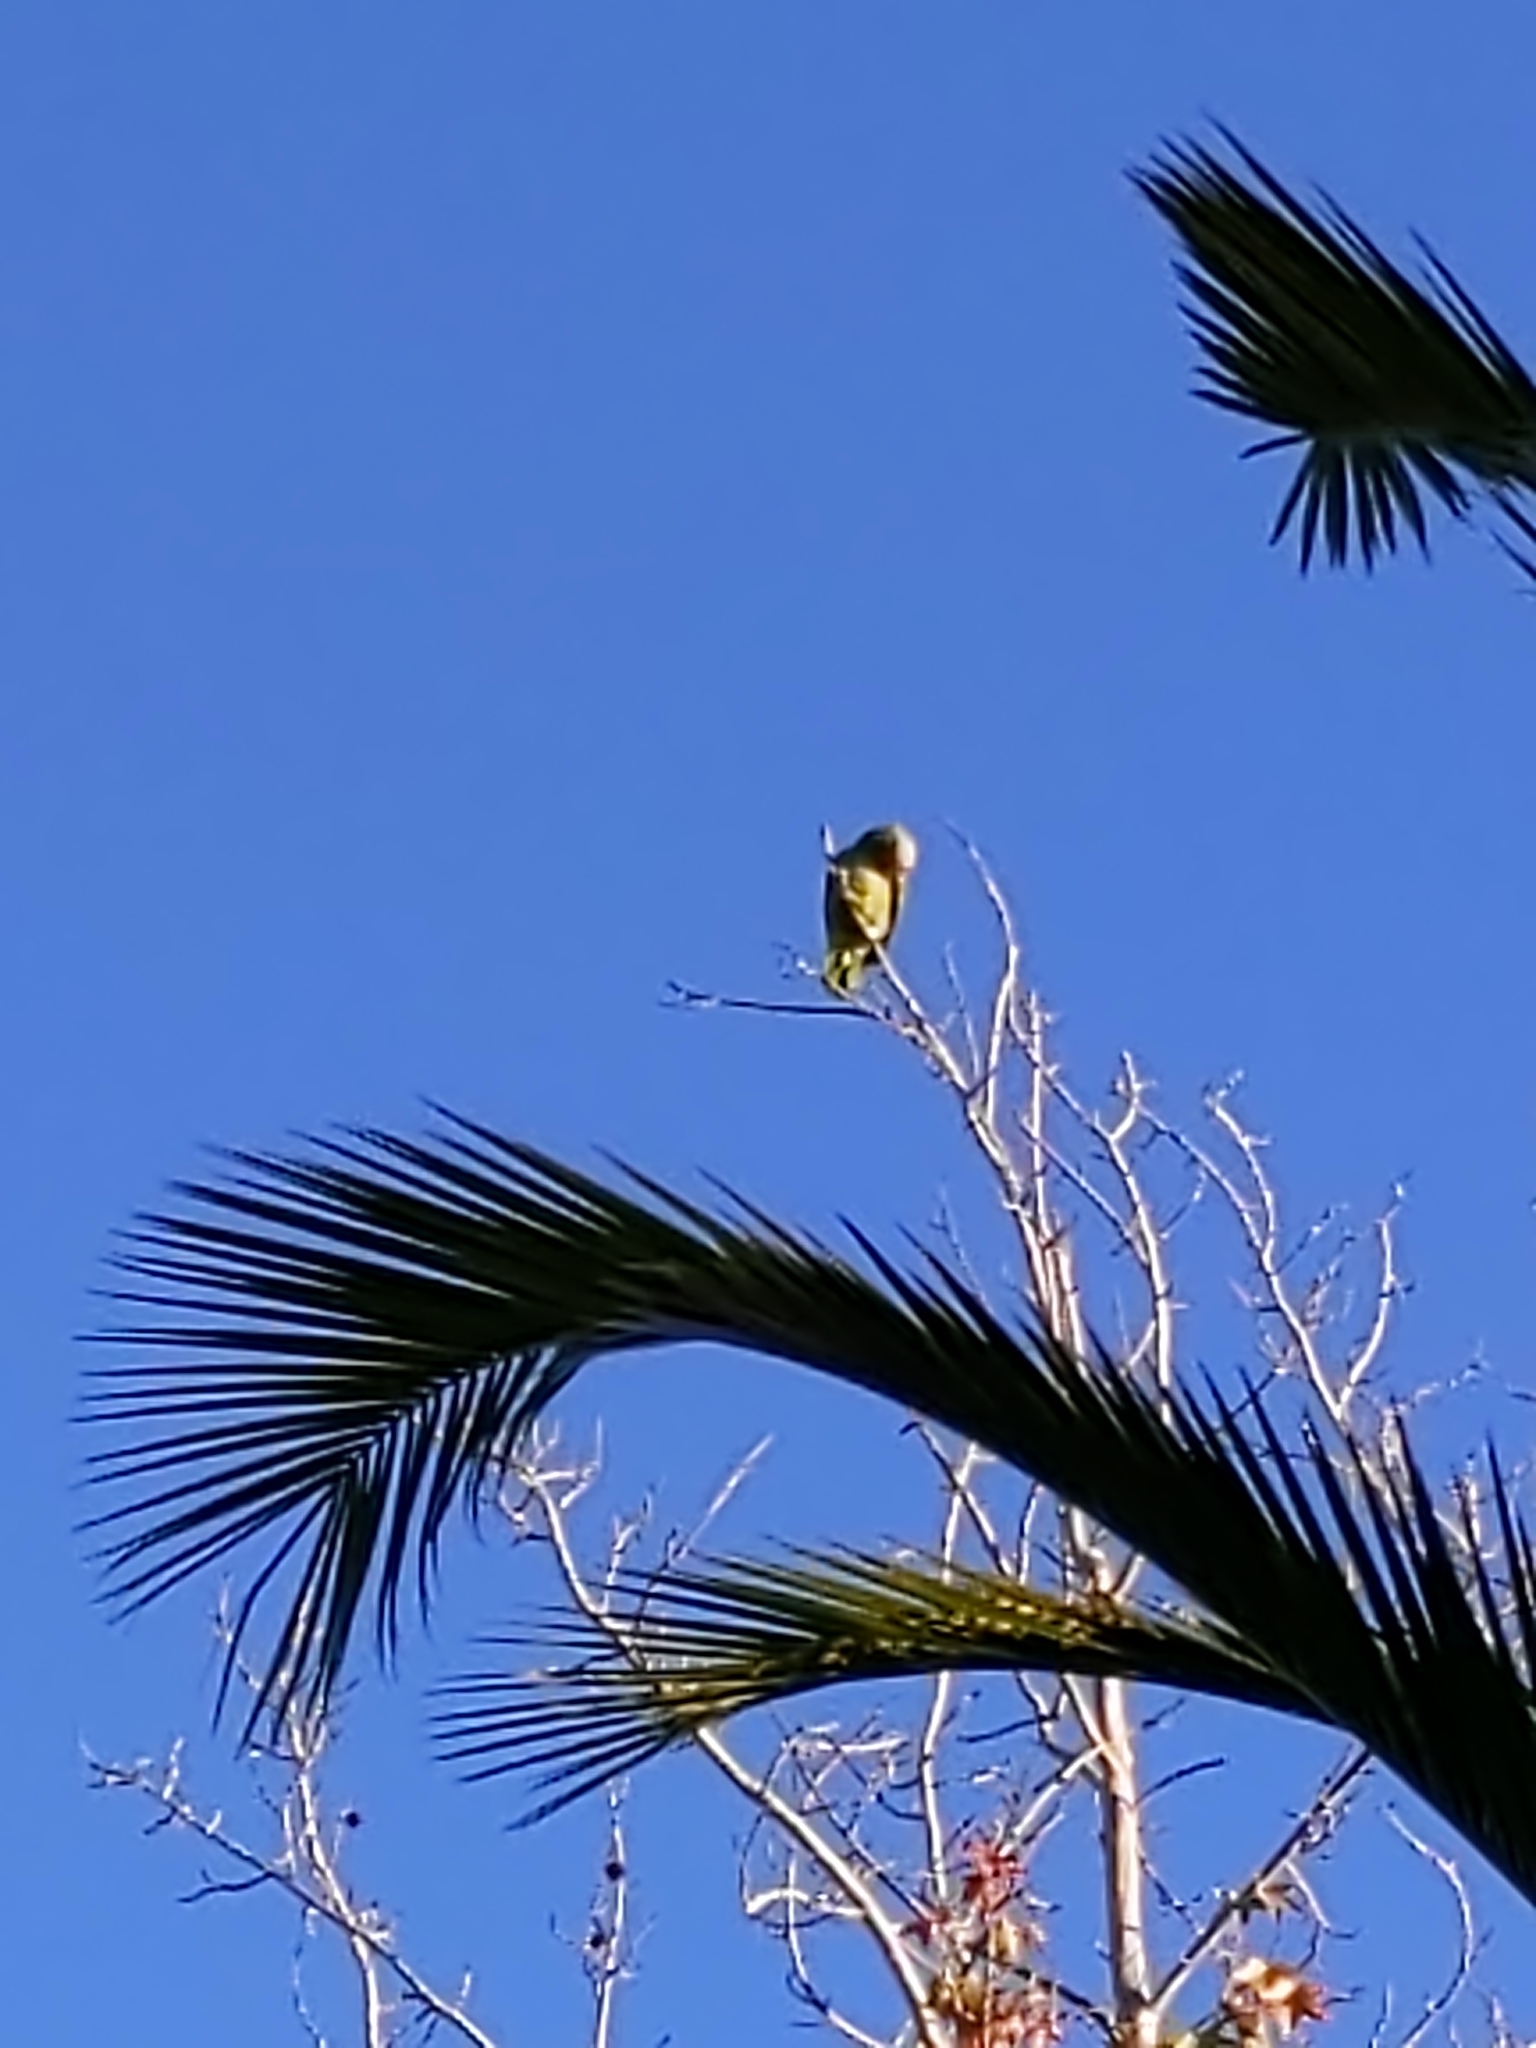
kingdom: Animalia
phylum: Chordata
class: Aves
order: Psittaciformes
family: Psittacidae
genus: Amazona
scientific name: Amazona
